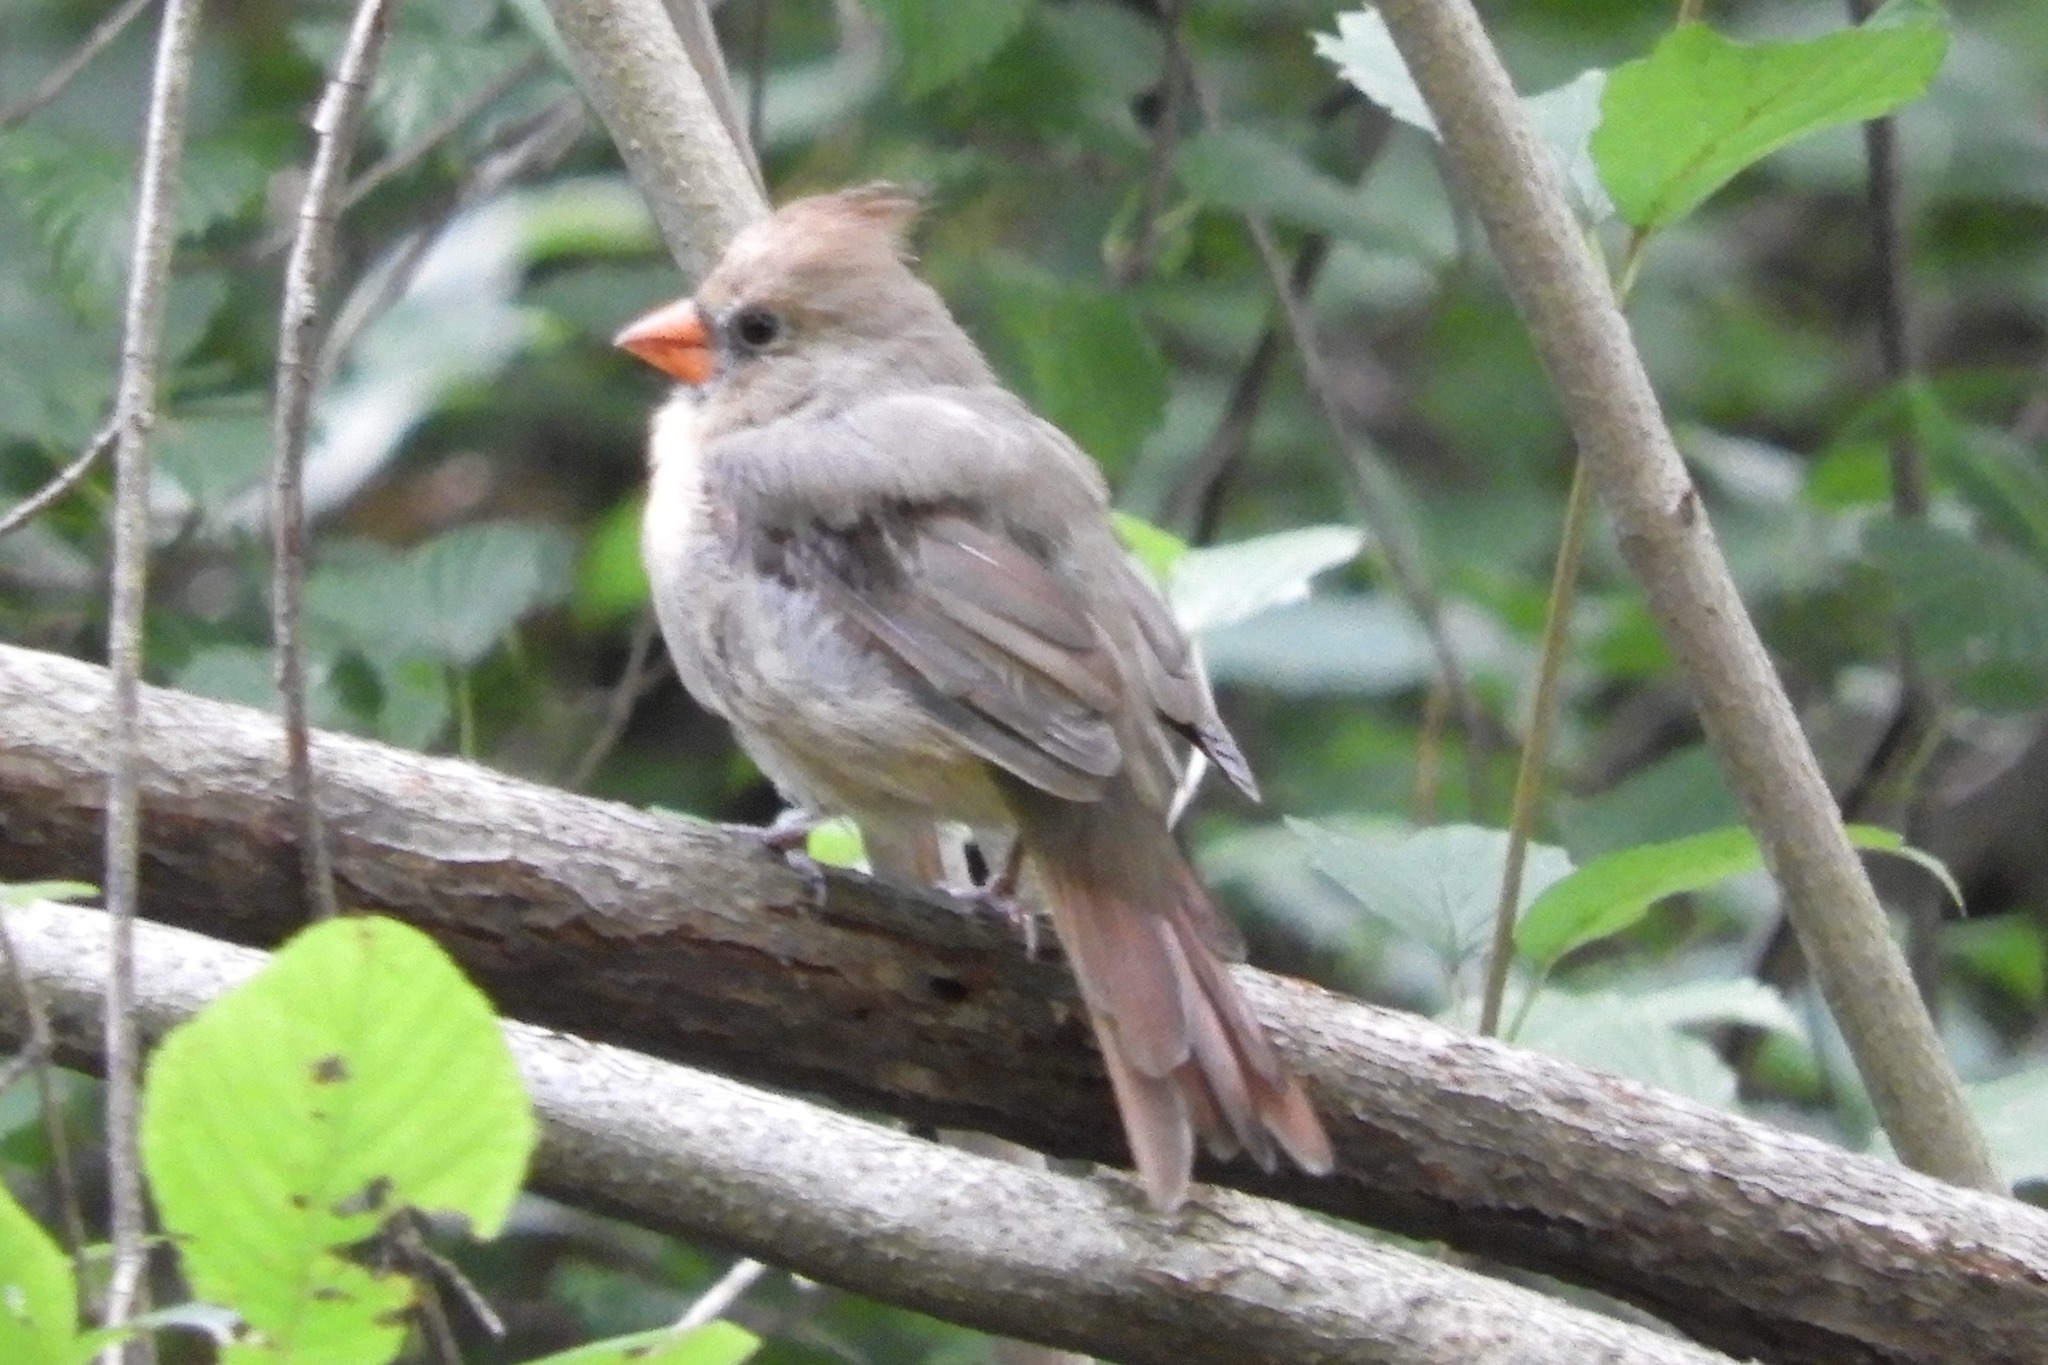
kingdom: Animalia
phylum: Chordata
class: Aves
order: Passeriformes
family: Cardinalidae
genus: Cardinalis
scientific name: Cardinalis cardinalis
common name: Northern cardinal
